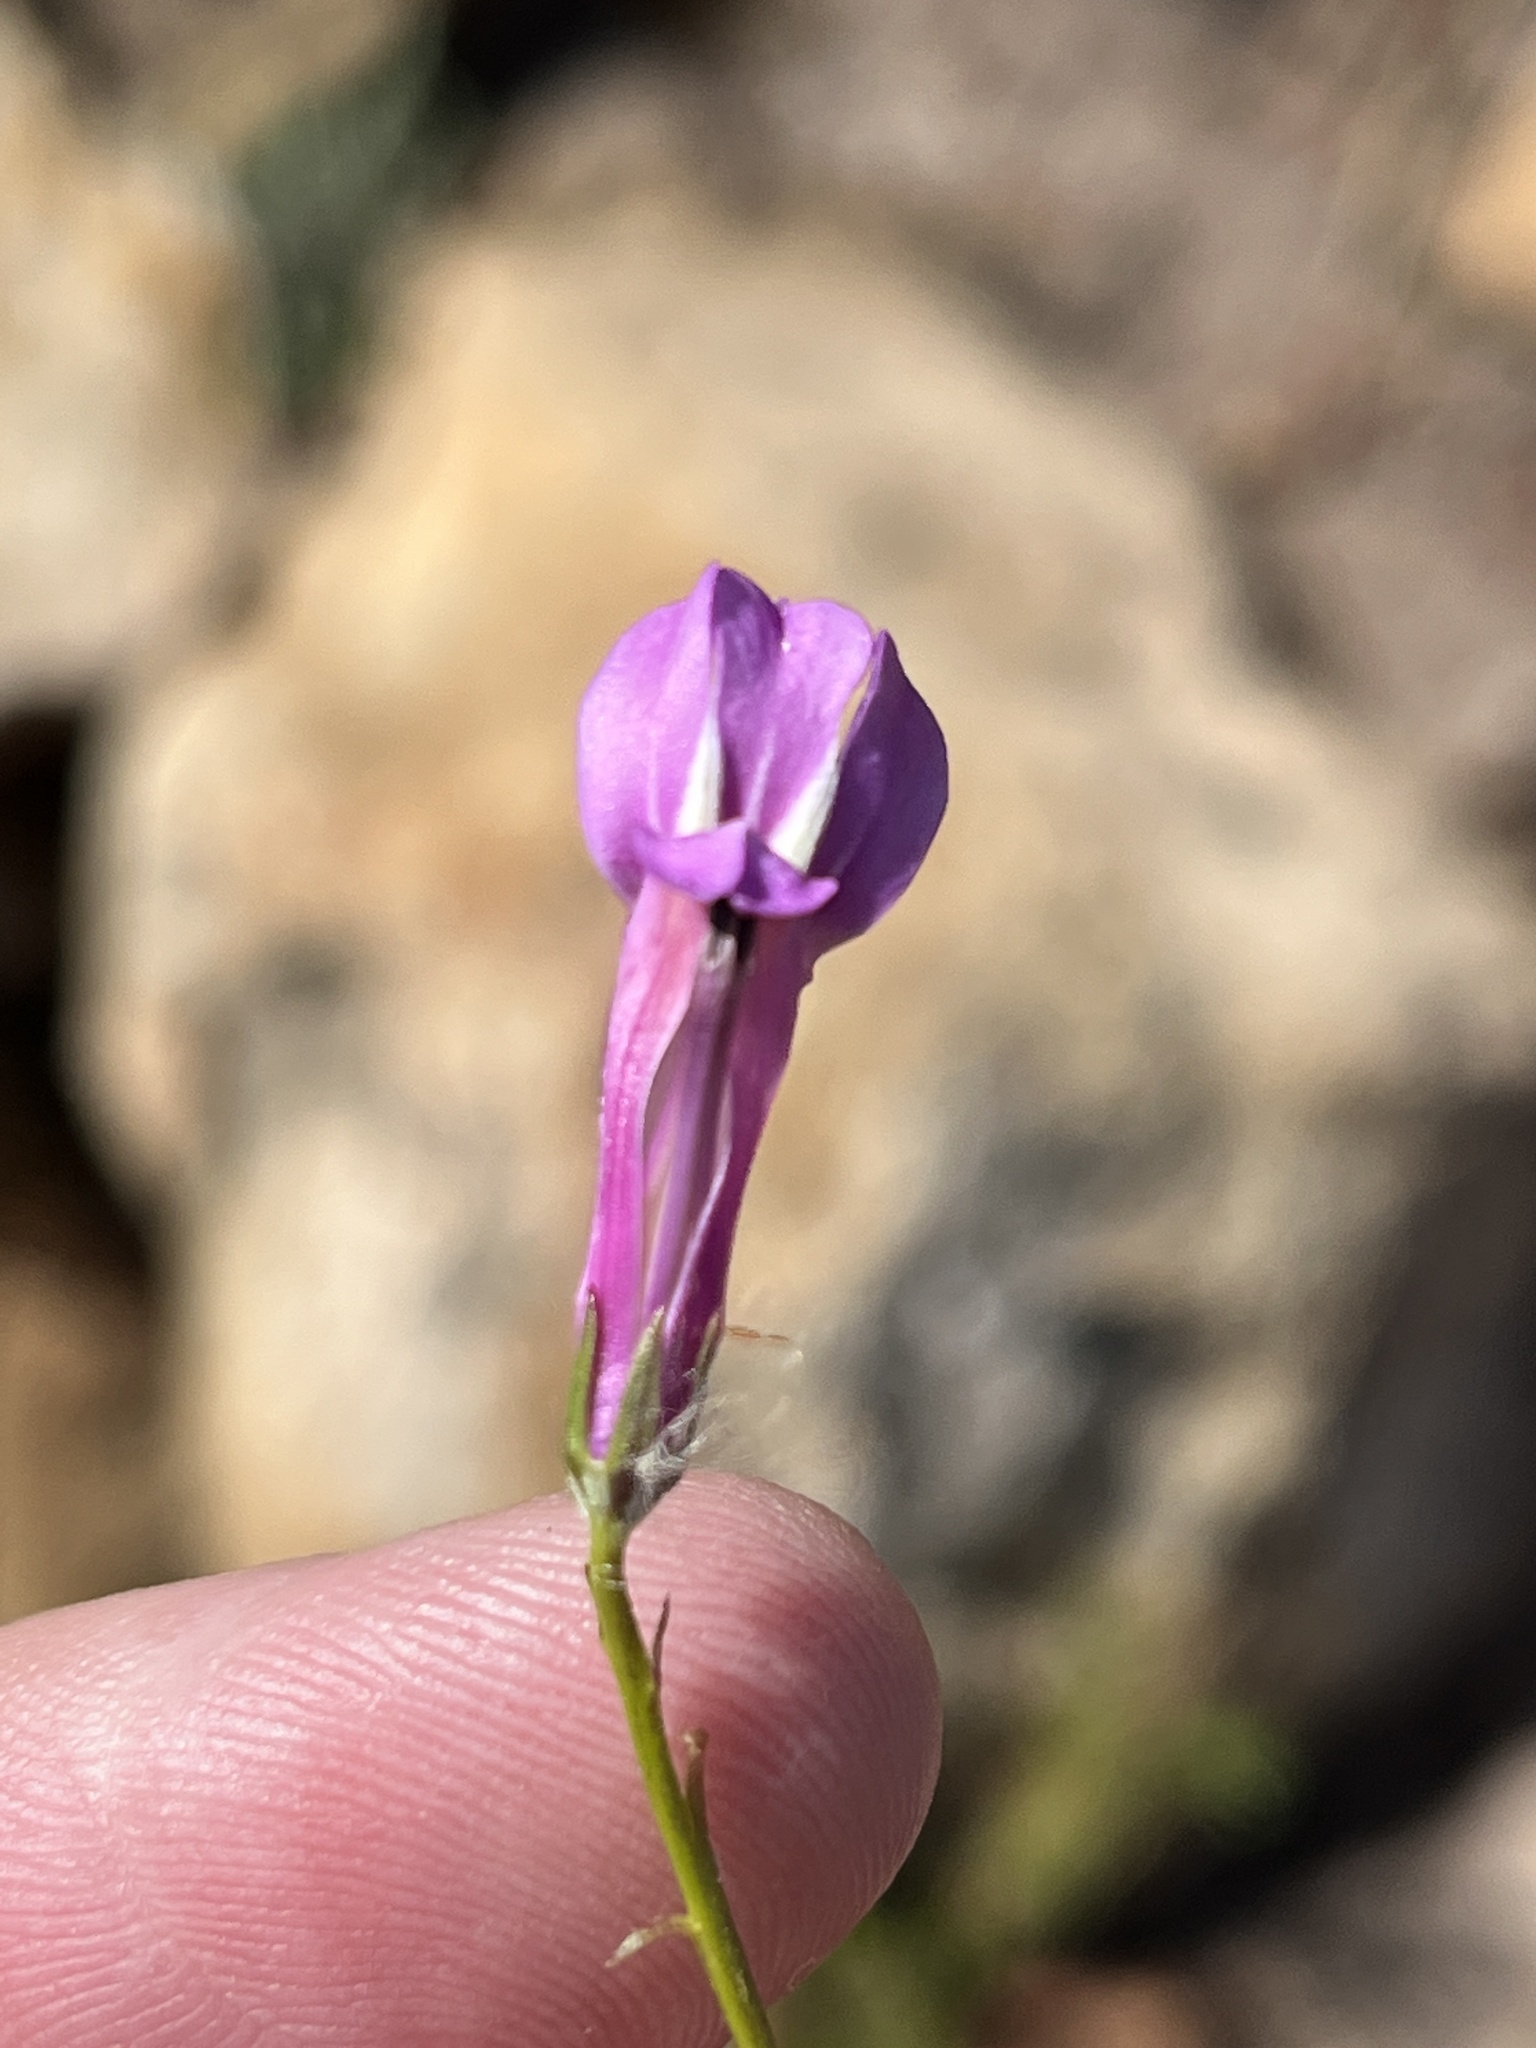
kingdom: Plantae
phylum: Tracheophyta
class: Magnoliopsida
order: Asterales
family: Campanulaceae
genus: Lobelia
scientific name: Lobelia coronopifolia
